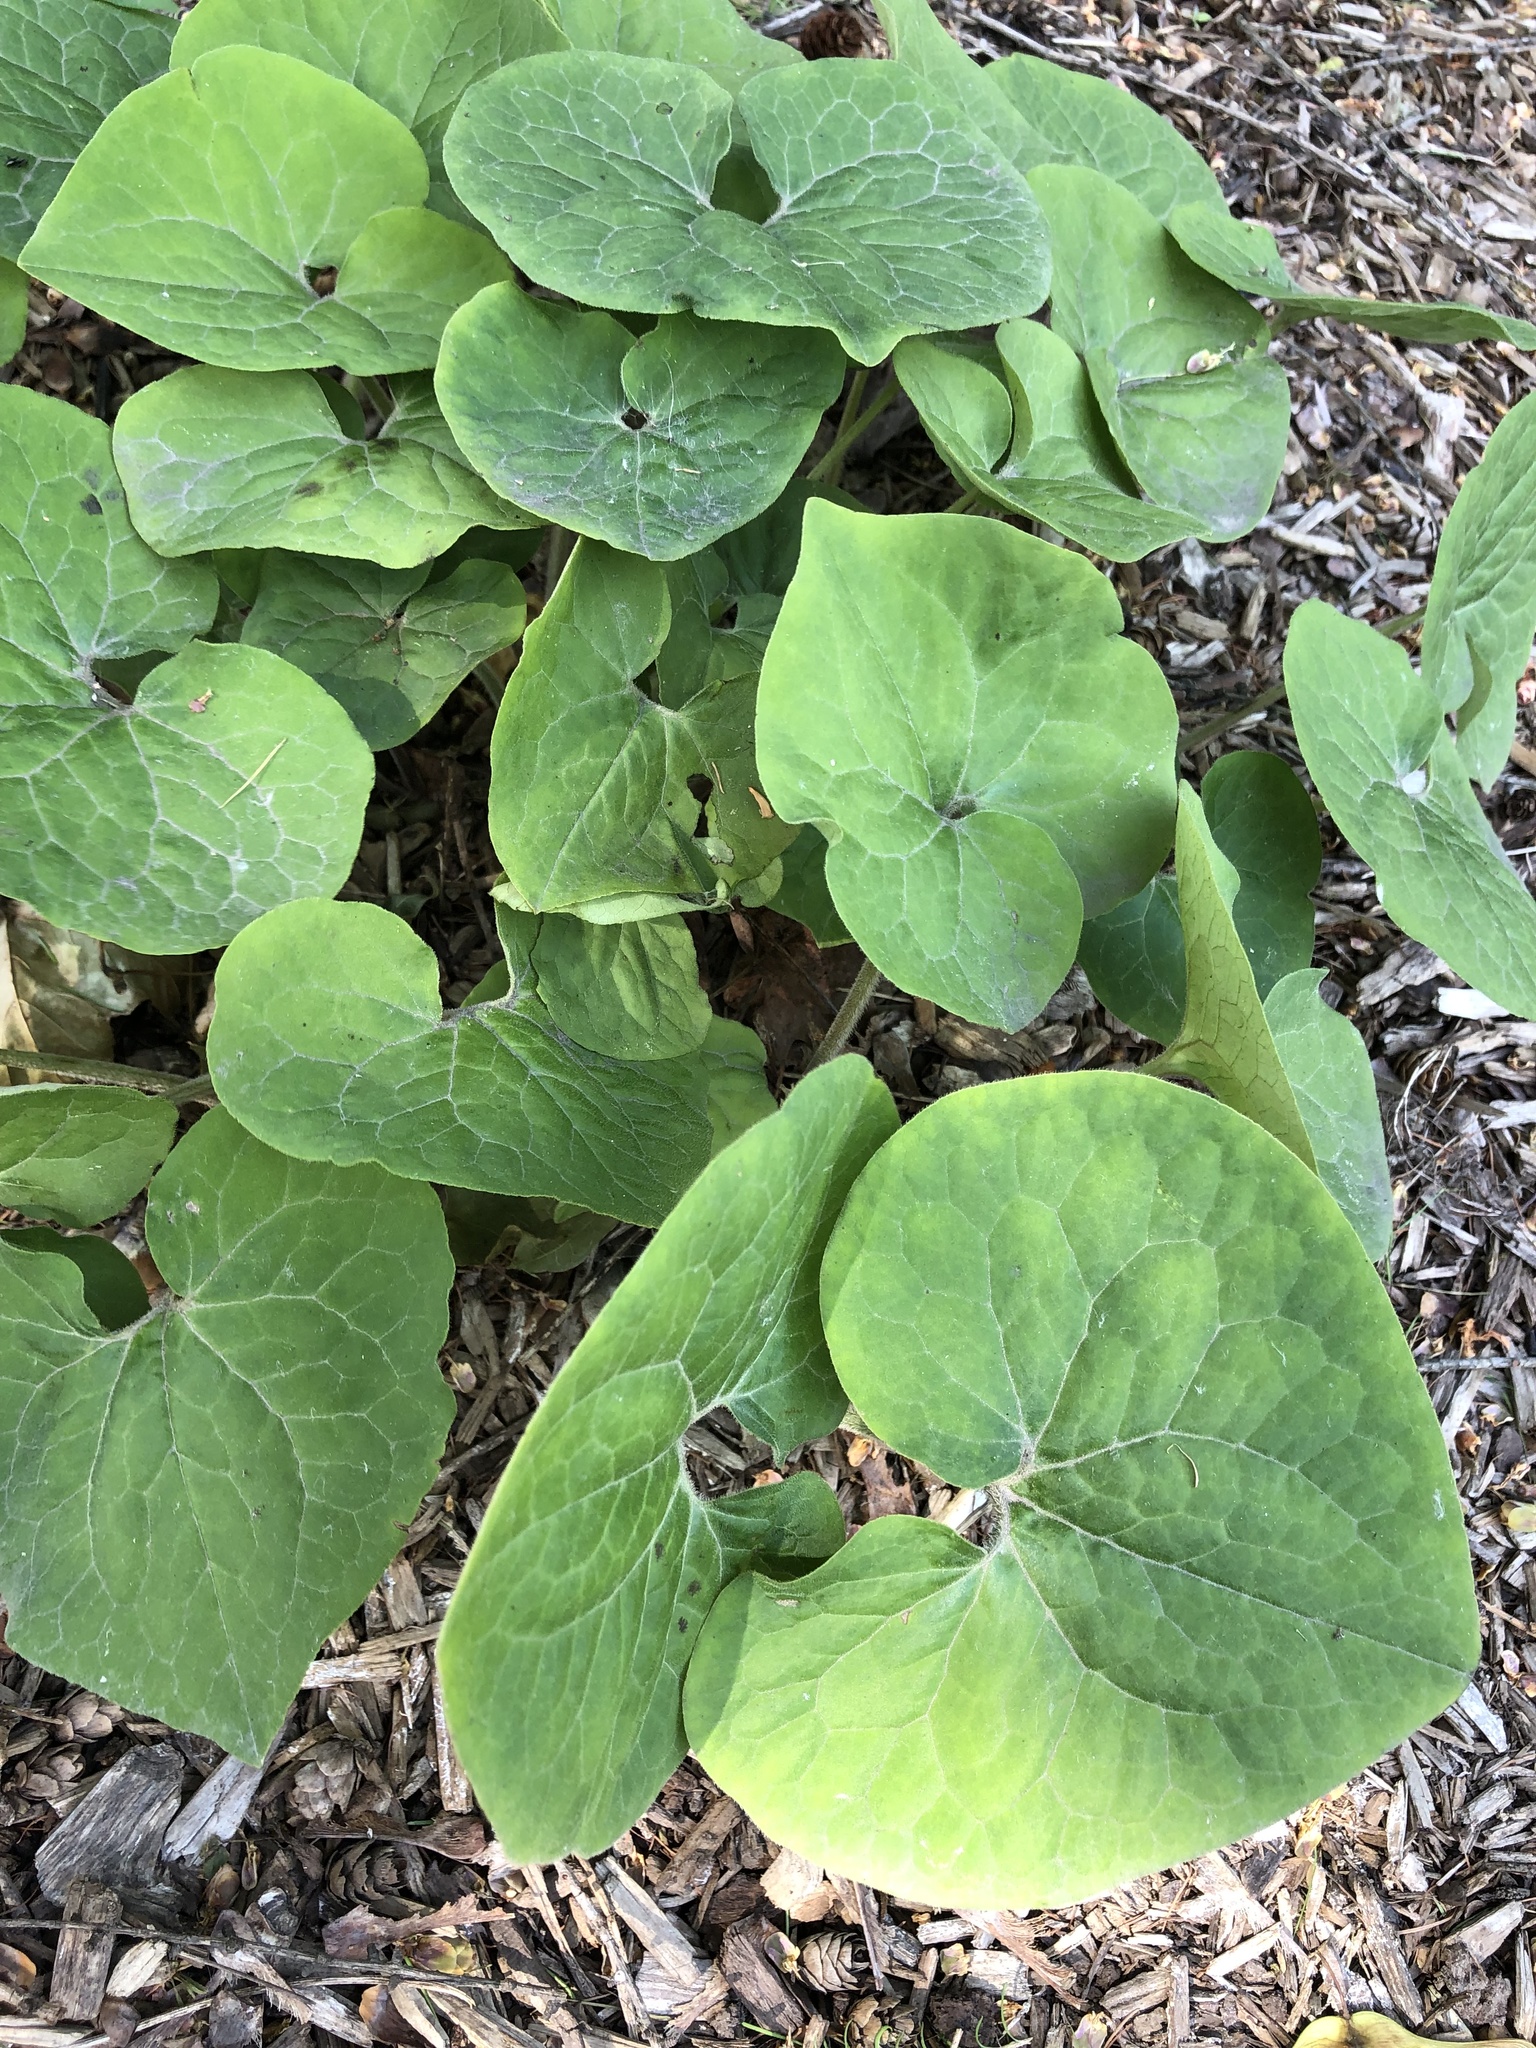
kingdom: Plantae
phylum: Tracheophyta
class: Magnoliopsida
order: Piperales
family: Aristolochiaceae
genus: Asarum
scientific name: Asarum canadense
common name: Wild ginger
